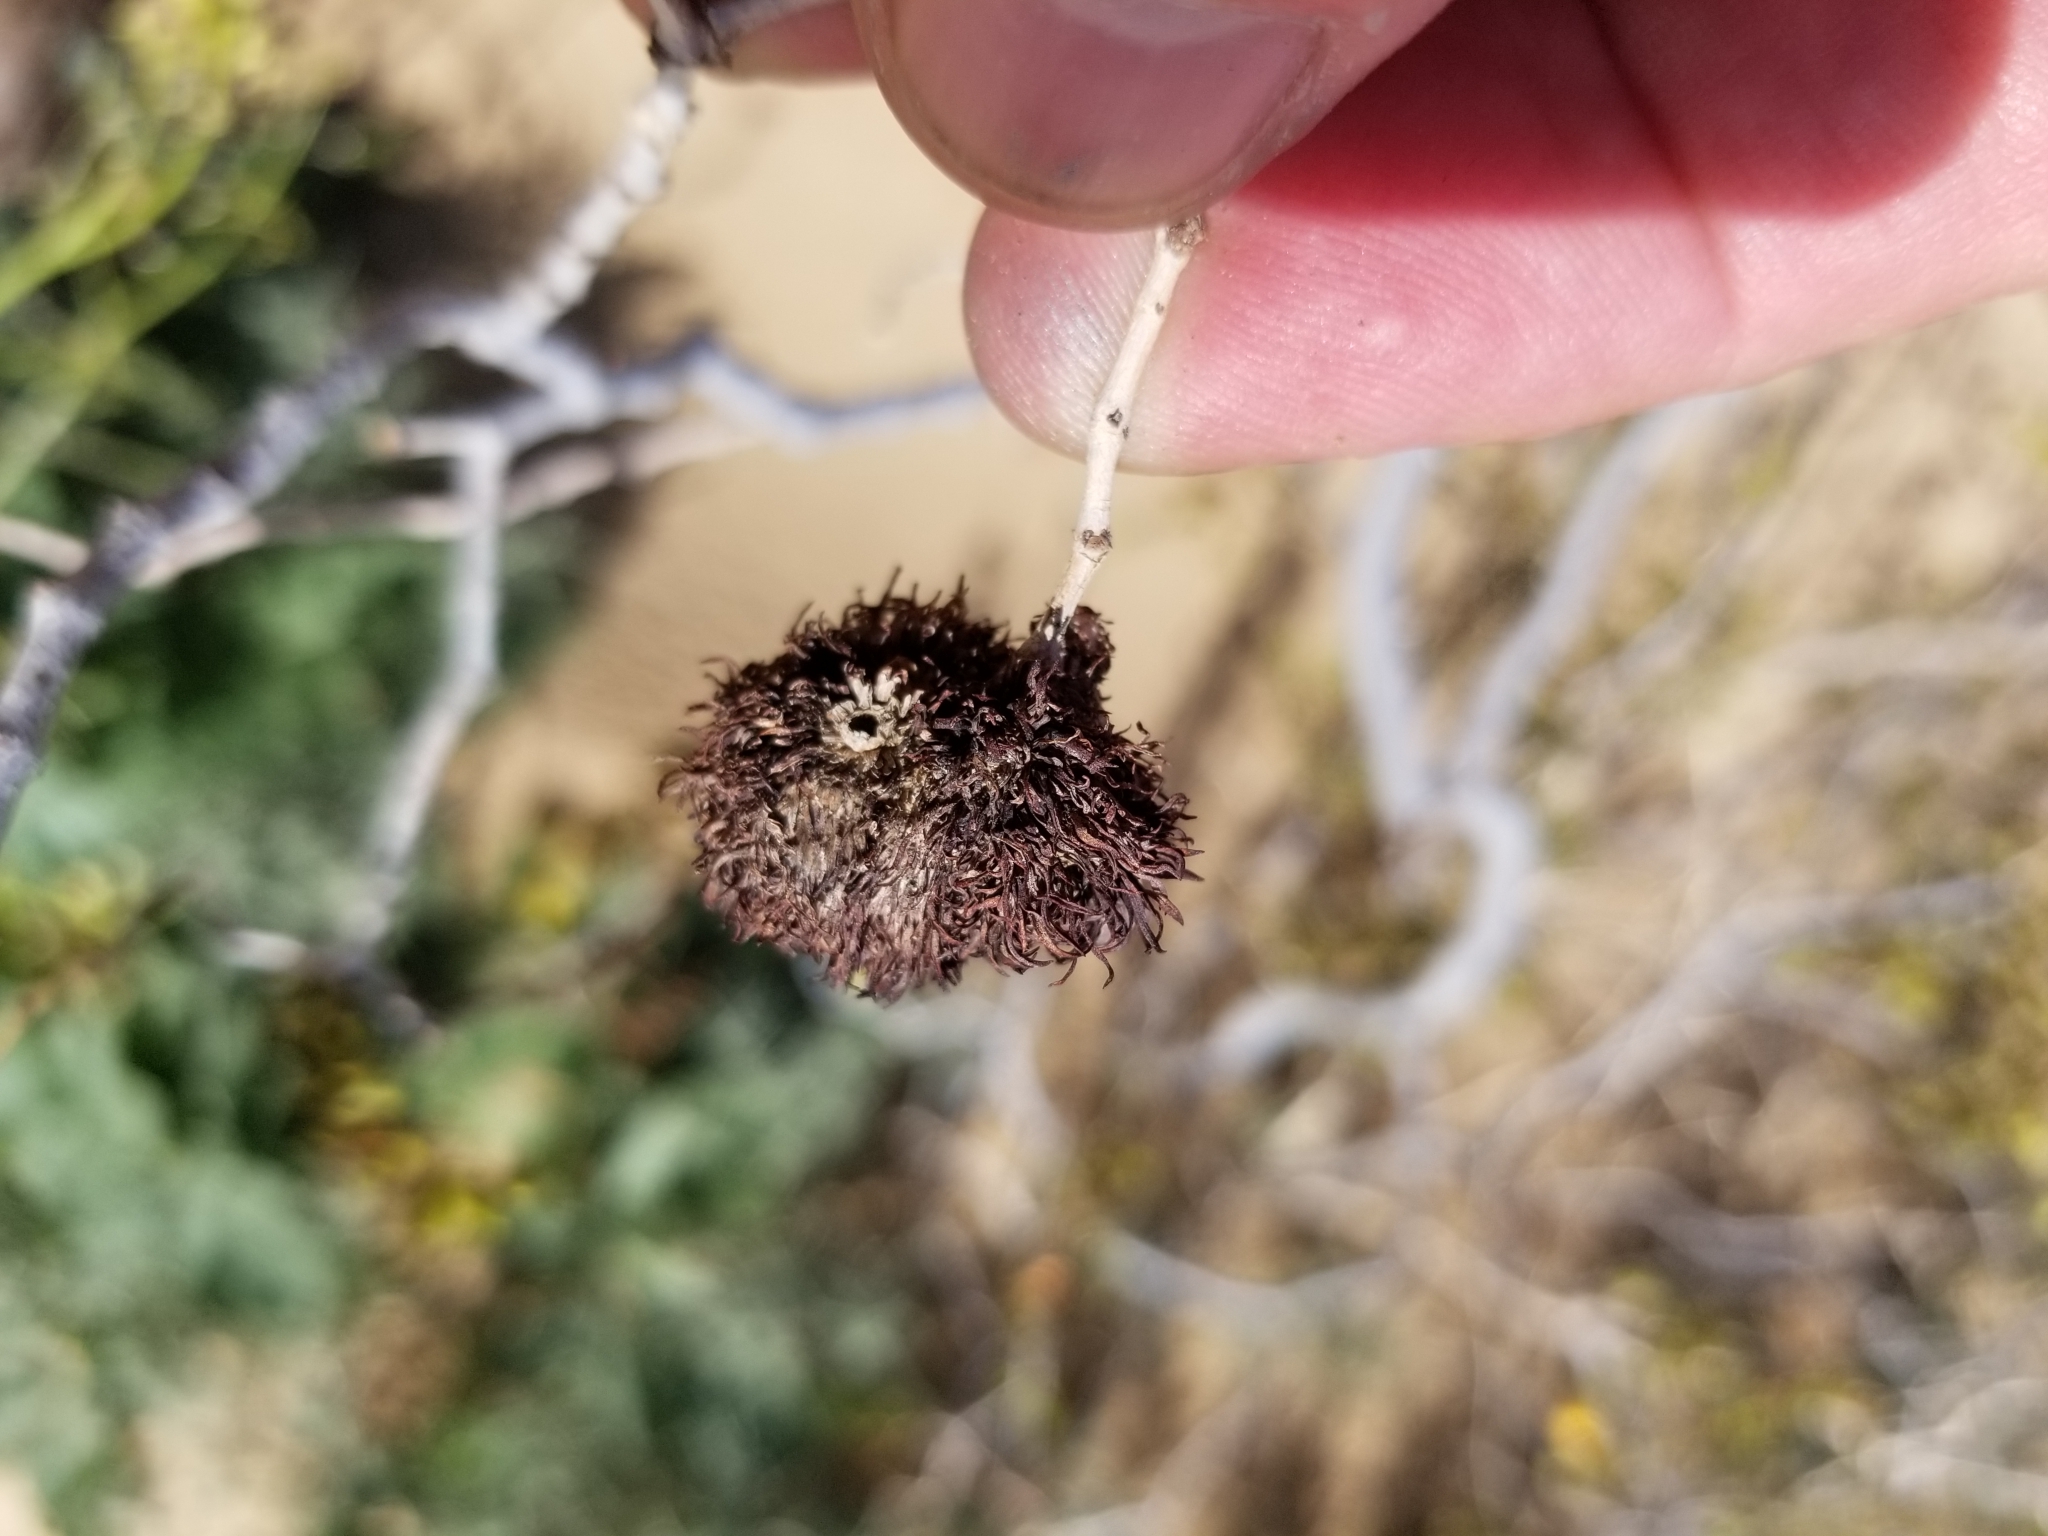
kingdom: Animalia
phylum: Arthropoda
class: Insecta
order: Diptera
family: Cecidomyiidae
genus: Asphondylia
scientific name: Asphondylia auripila
